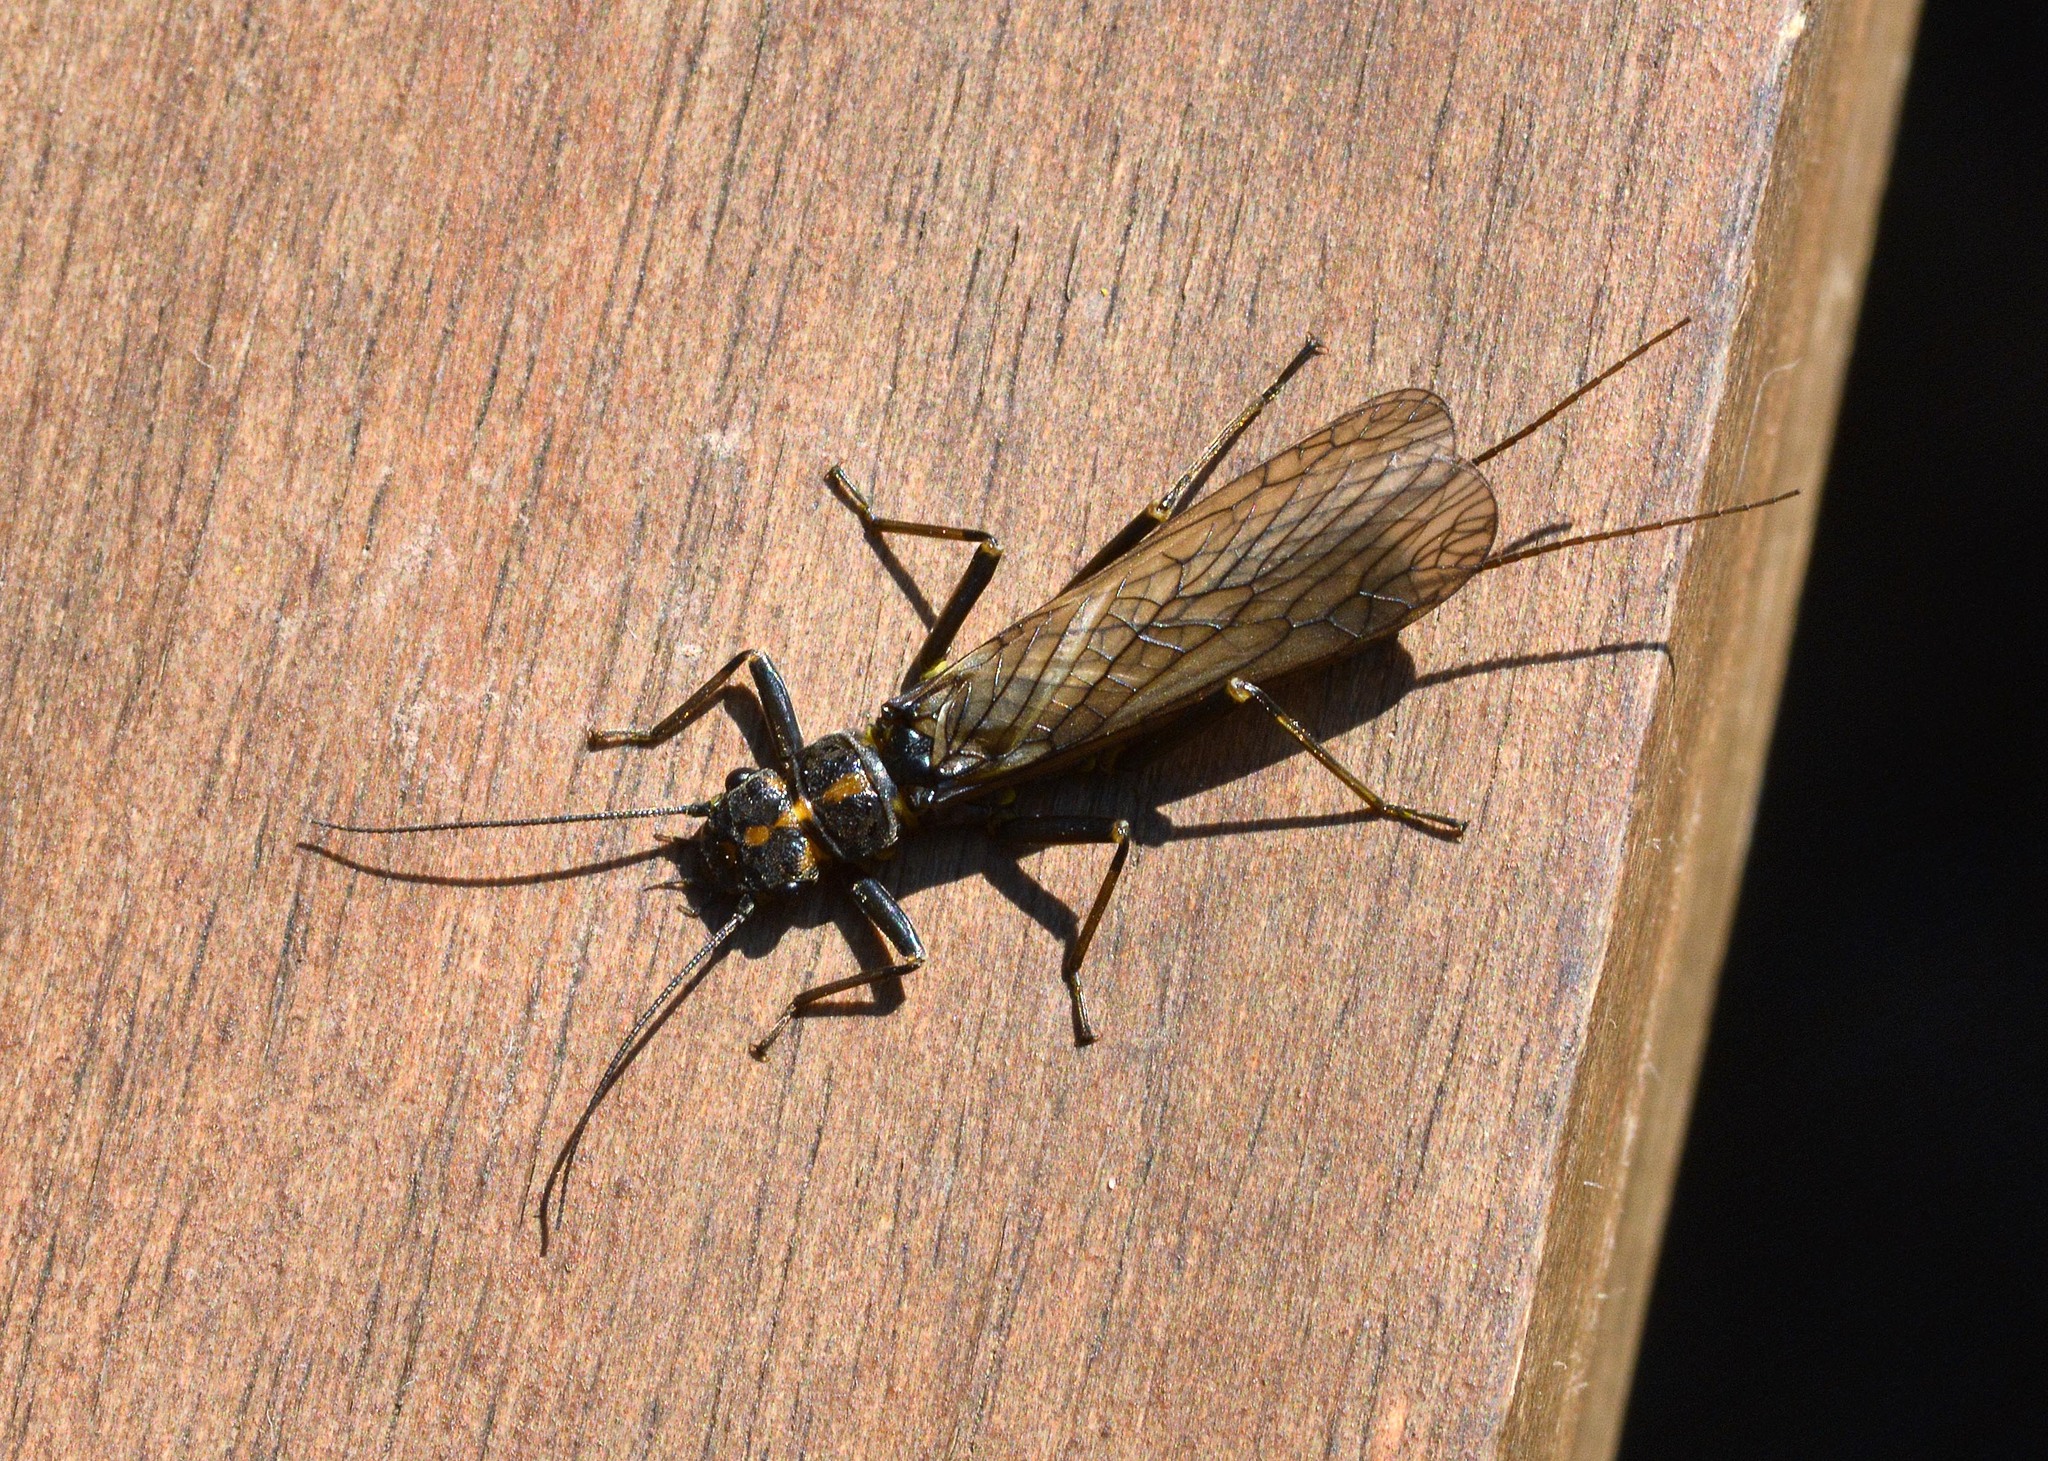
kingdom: Animalia
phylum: Arthropoda
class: Insecta
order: Plecoptera
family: Perlodidae
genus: Perlodes
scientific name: Perlodes mortoni
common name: Orange-striped stonefly
